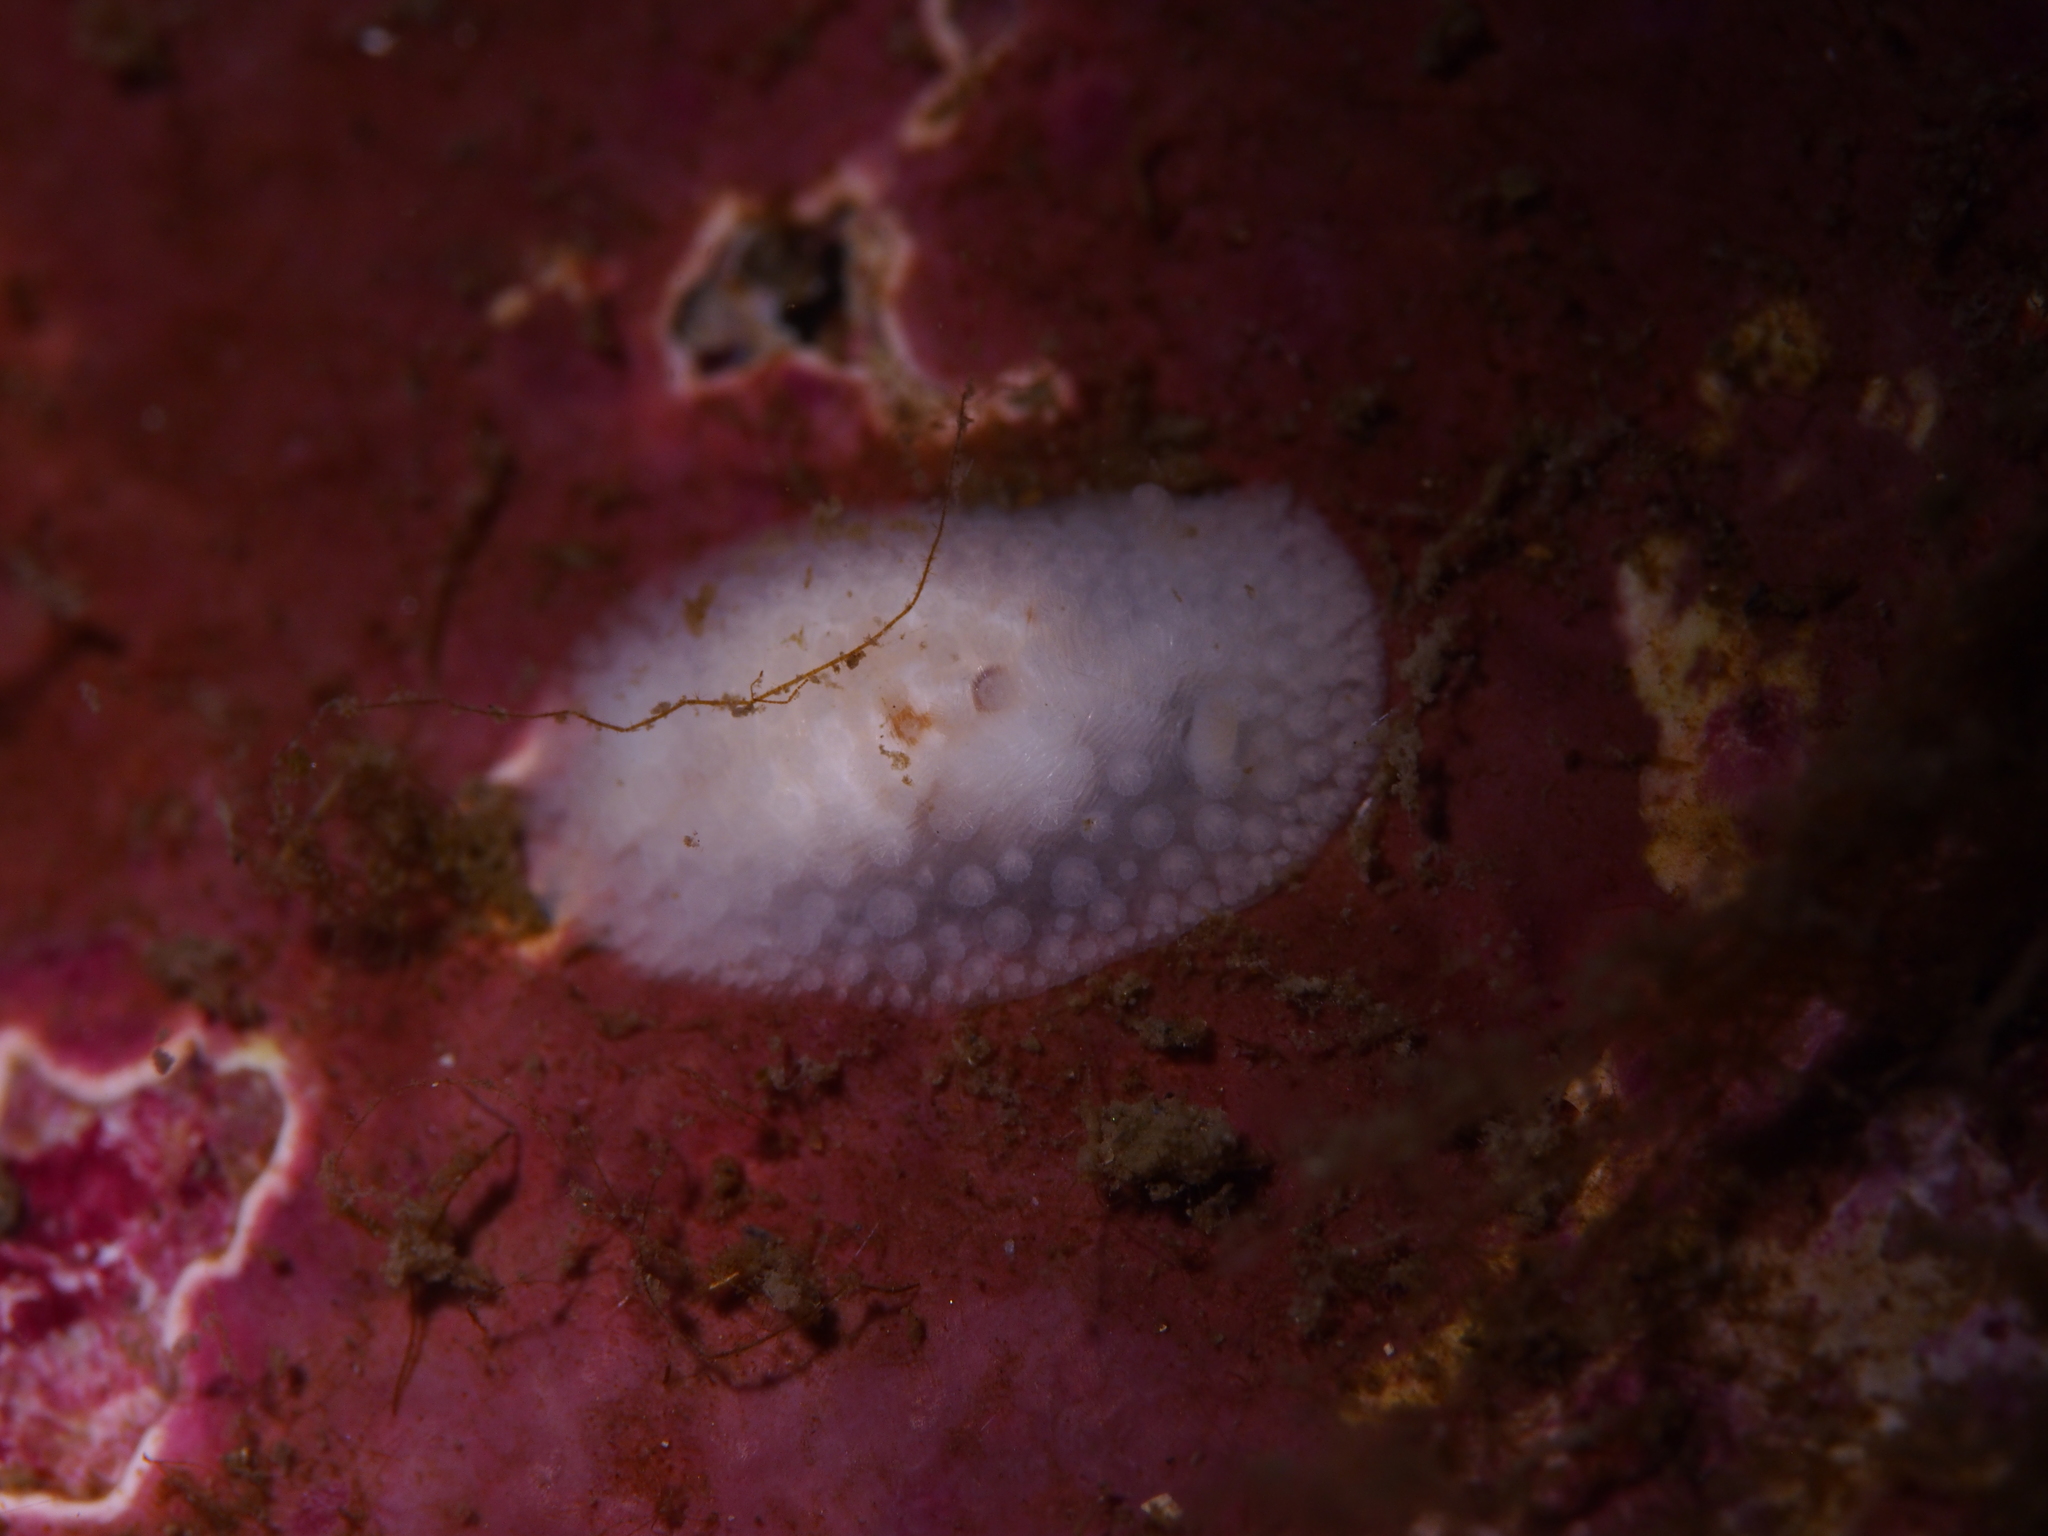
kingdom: Animalia
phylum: Mollusca
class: Gastropoda
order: Nudibranchia
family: Onchidorididae
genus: Onchidoris
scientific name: Onchidoris muricata
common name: Rough doris
